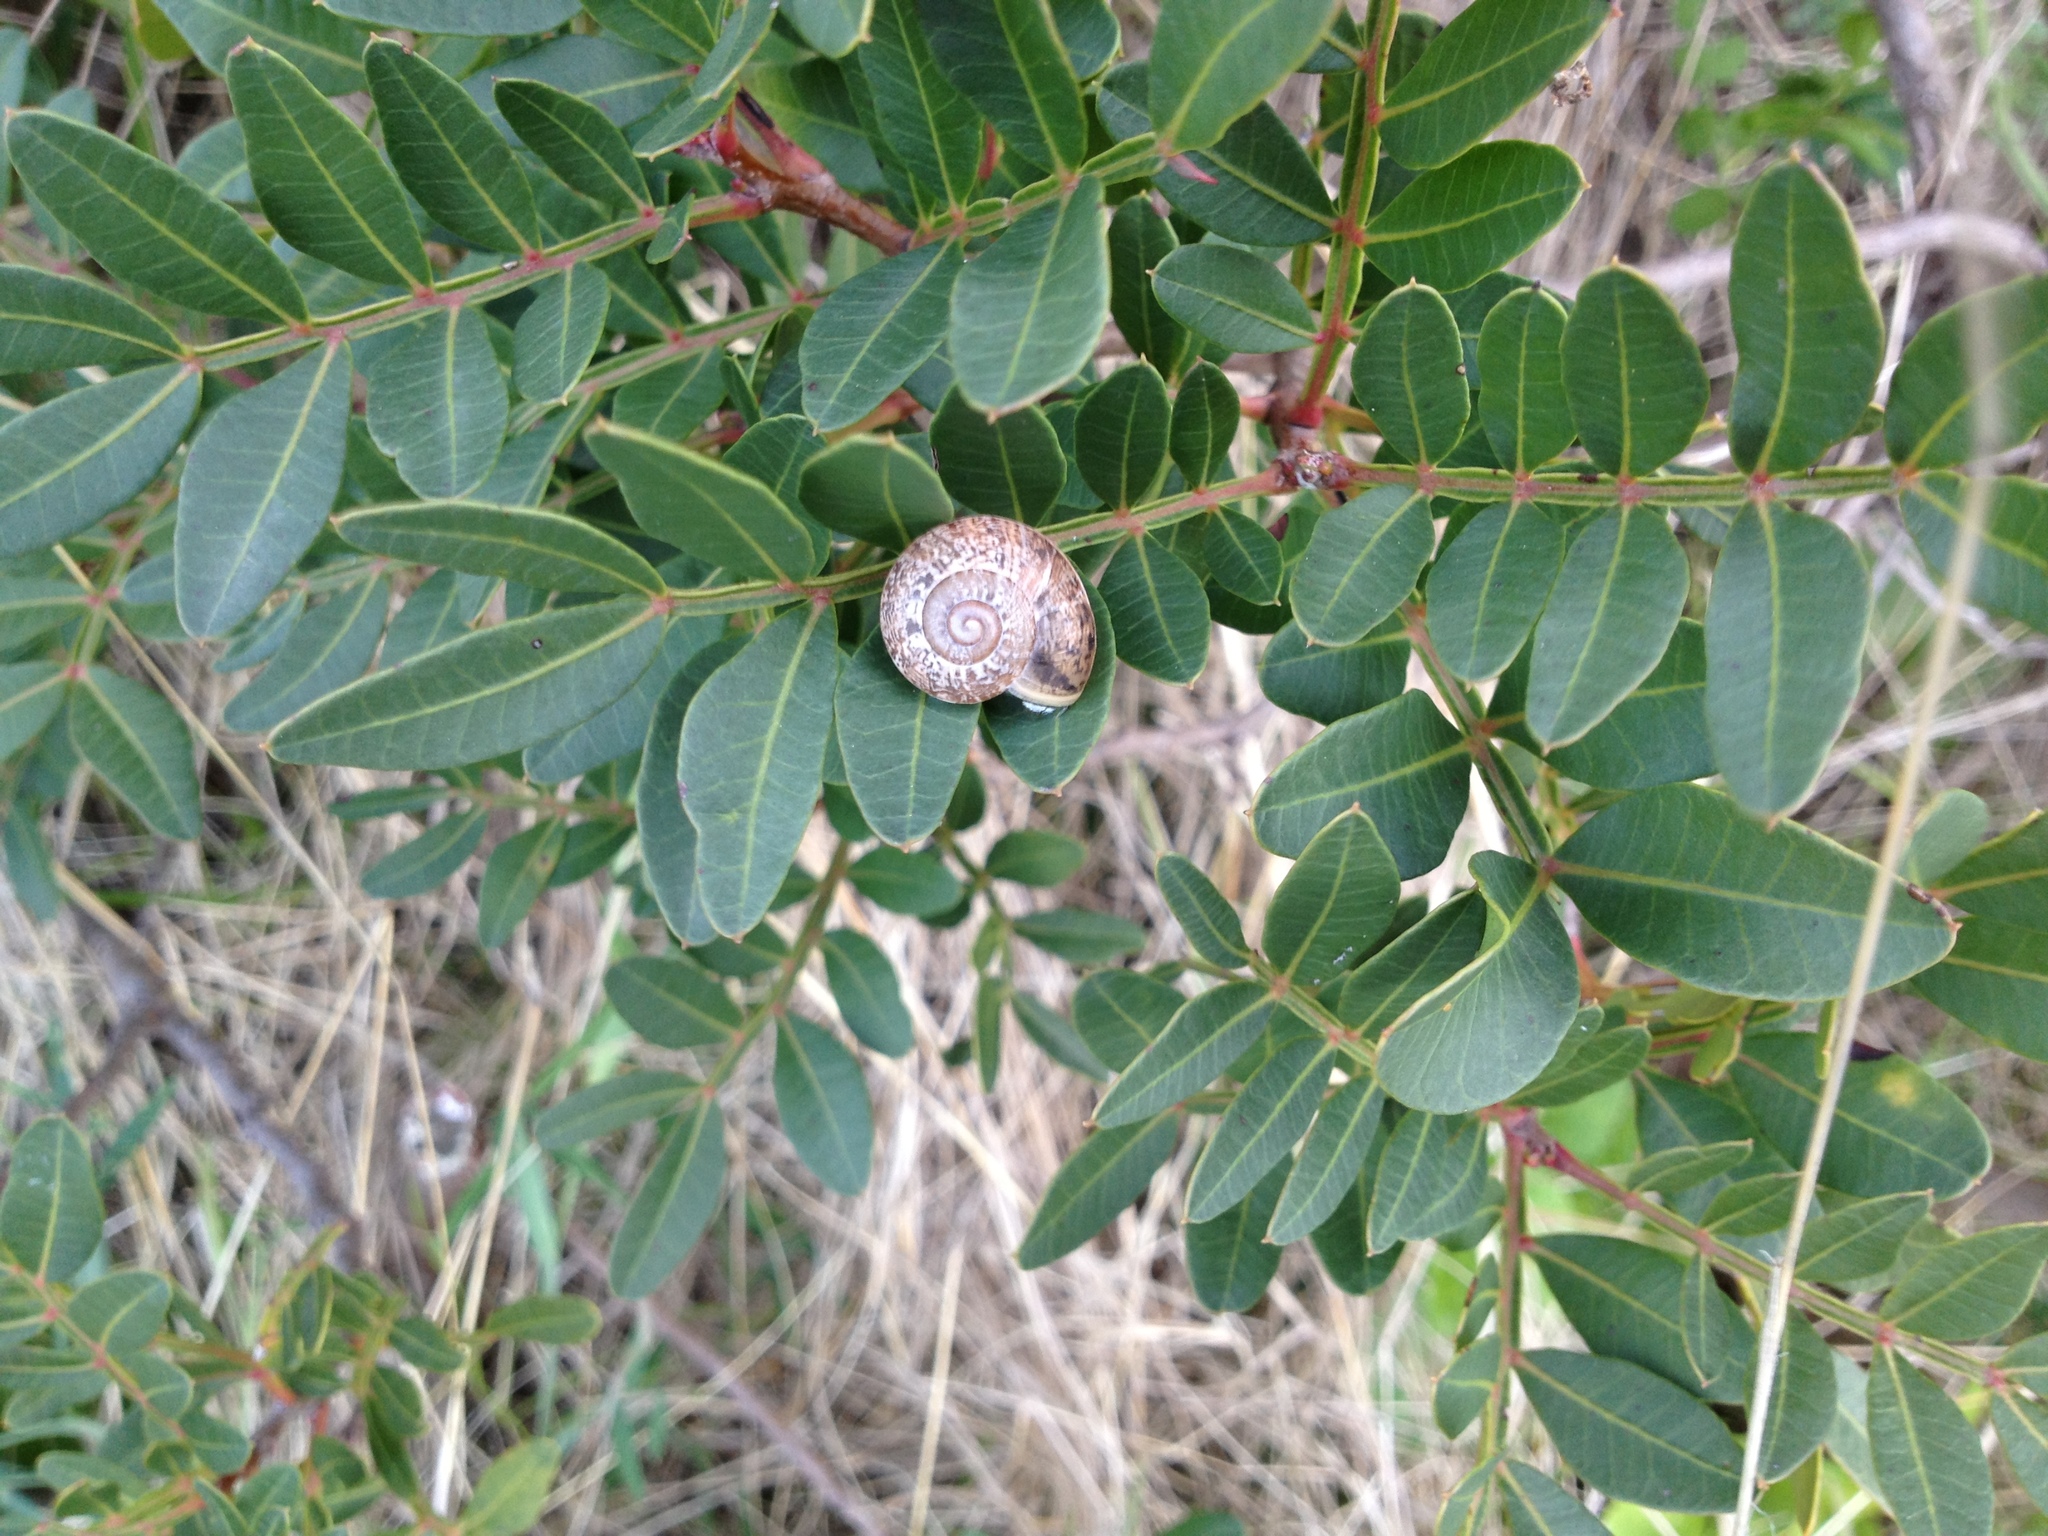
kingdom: Plantae
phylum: Tracheophyta
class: Magnoliopsida
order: Sapindales
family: Anacardiaceae
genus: Pistacia
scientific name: Pistacia lentiscus
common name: Lentisk
